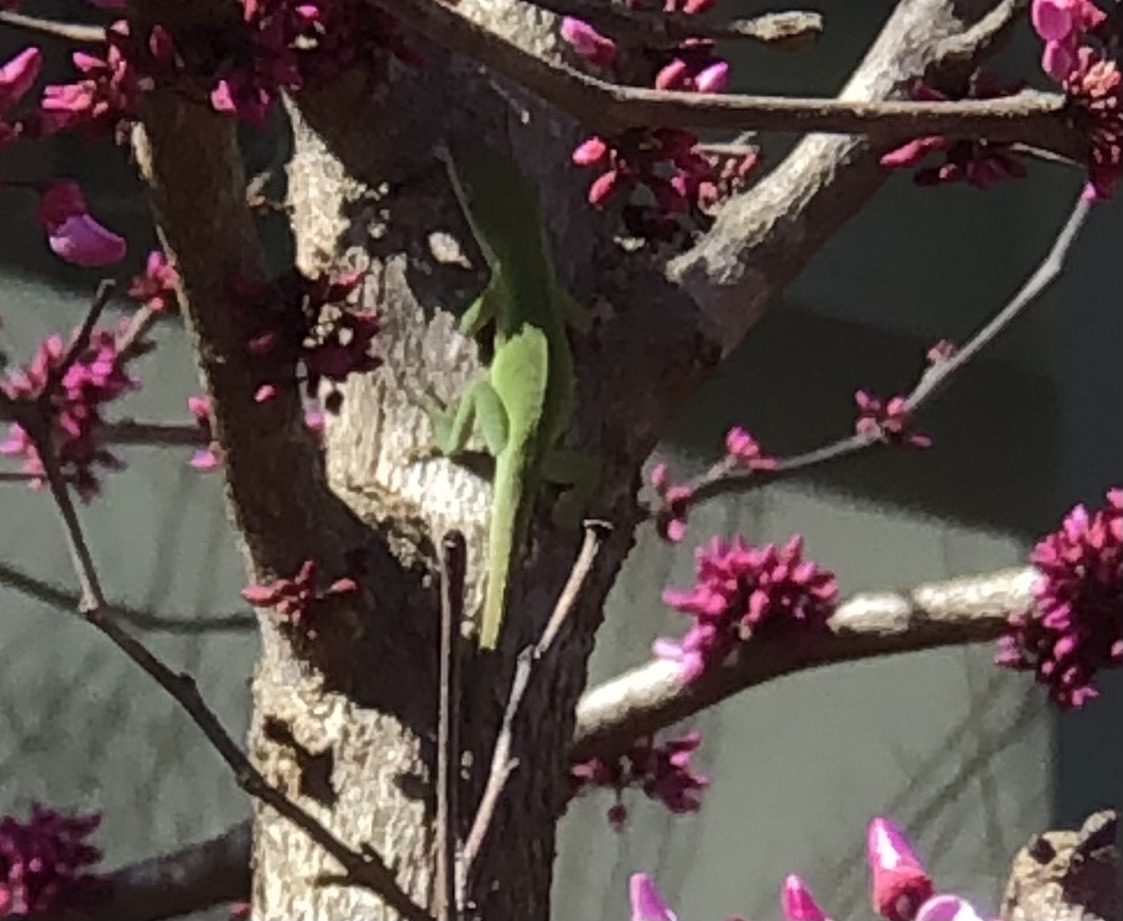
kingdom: Animalia
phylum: Chordata
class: Squamata
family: Dactyloidae
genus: Anolis
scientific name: Anolis carolinensis
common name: Green anole
